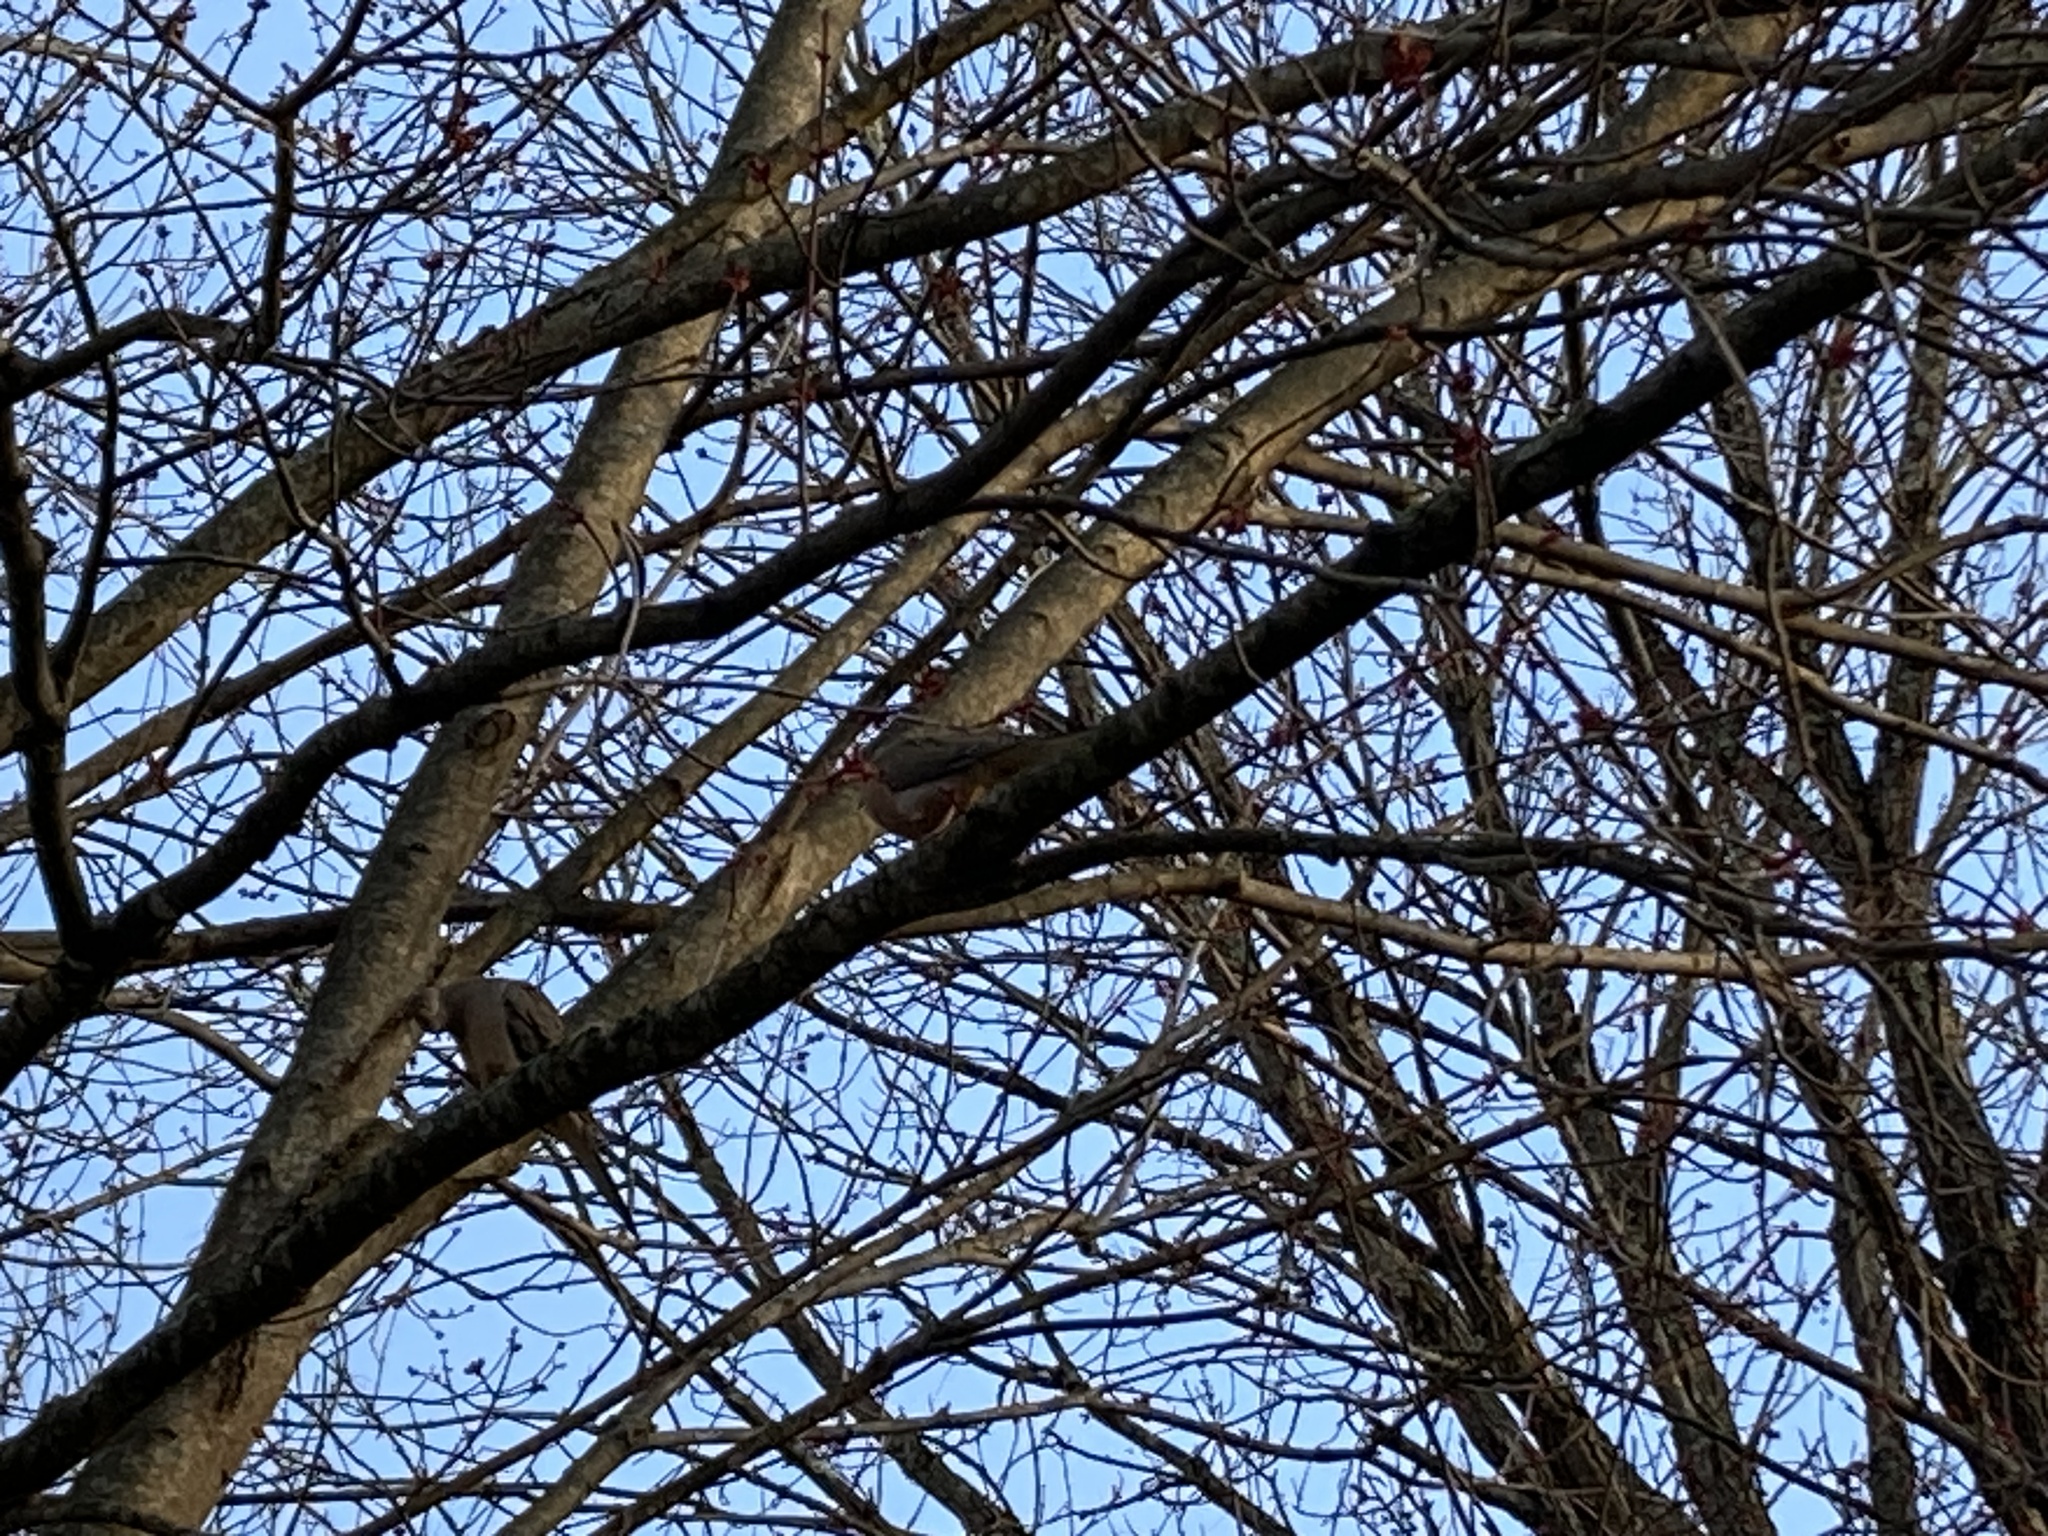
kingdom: Animalia
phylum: Chordata
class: Aves
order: Columbiformes
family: Columbidae
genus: Zenaida
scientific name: Zenaida macroura
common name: Mourning dove
